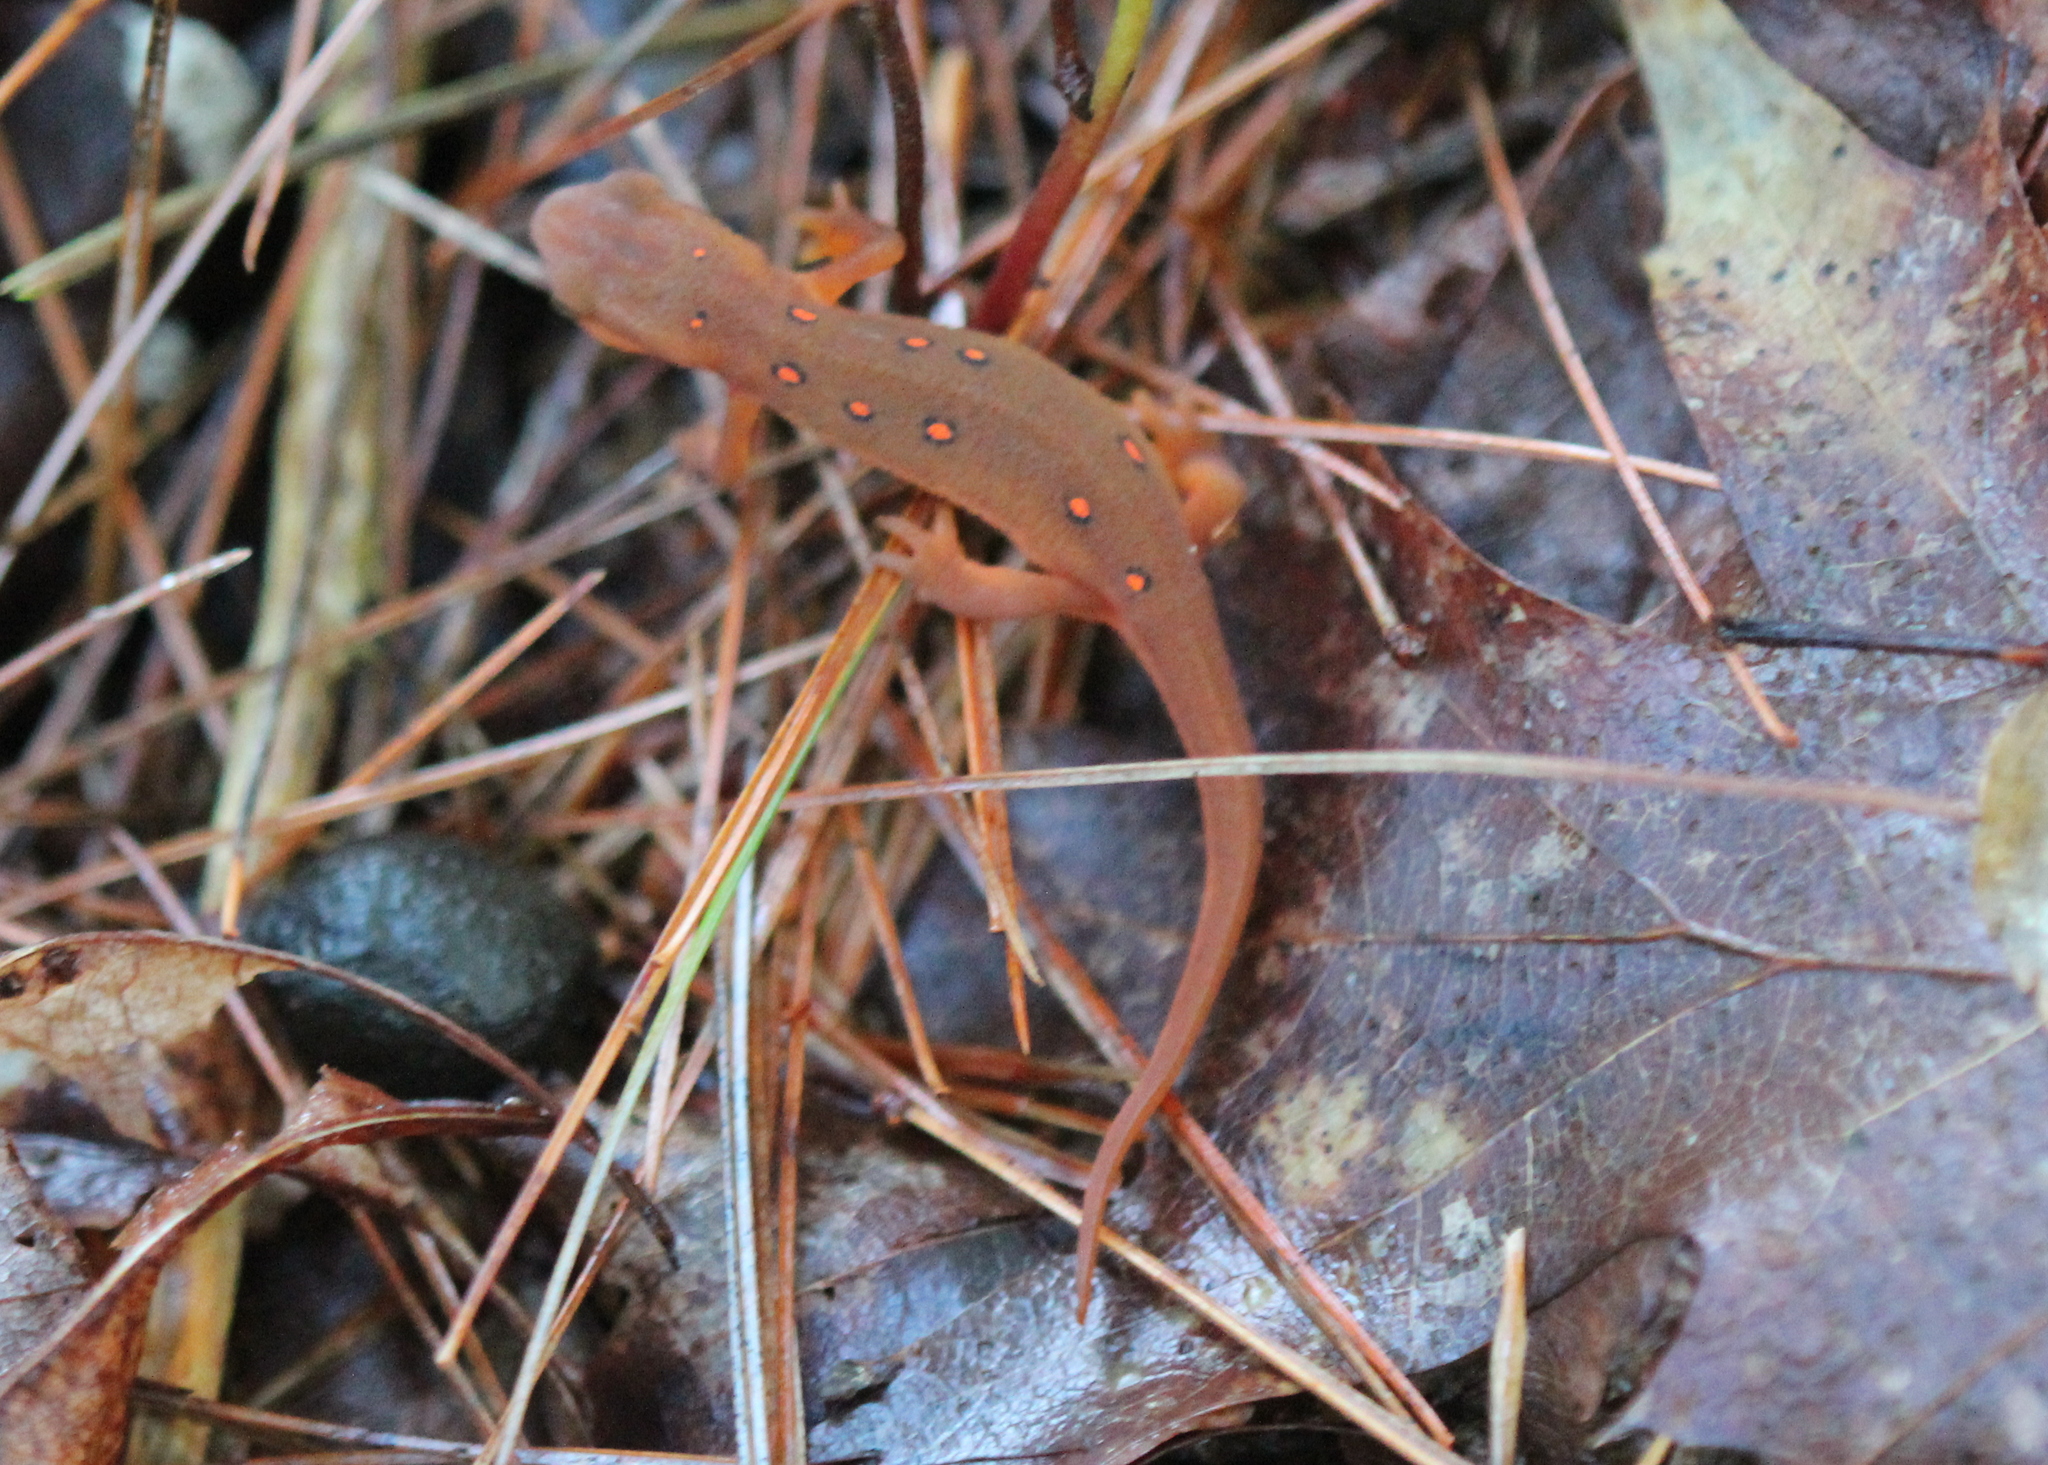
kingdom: Animalia
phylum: Chordata
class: Amphibia
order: Caudata
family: Salamandridae
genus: Notophthalmus
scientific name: Notophthalmus viridescens
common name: Eastern newt
